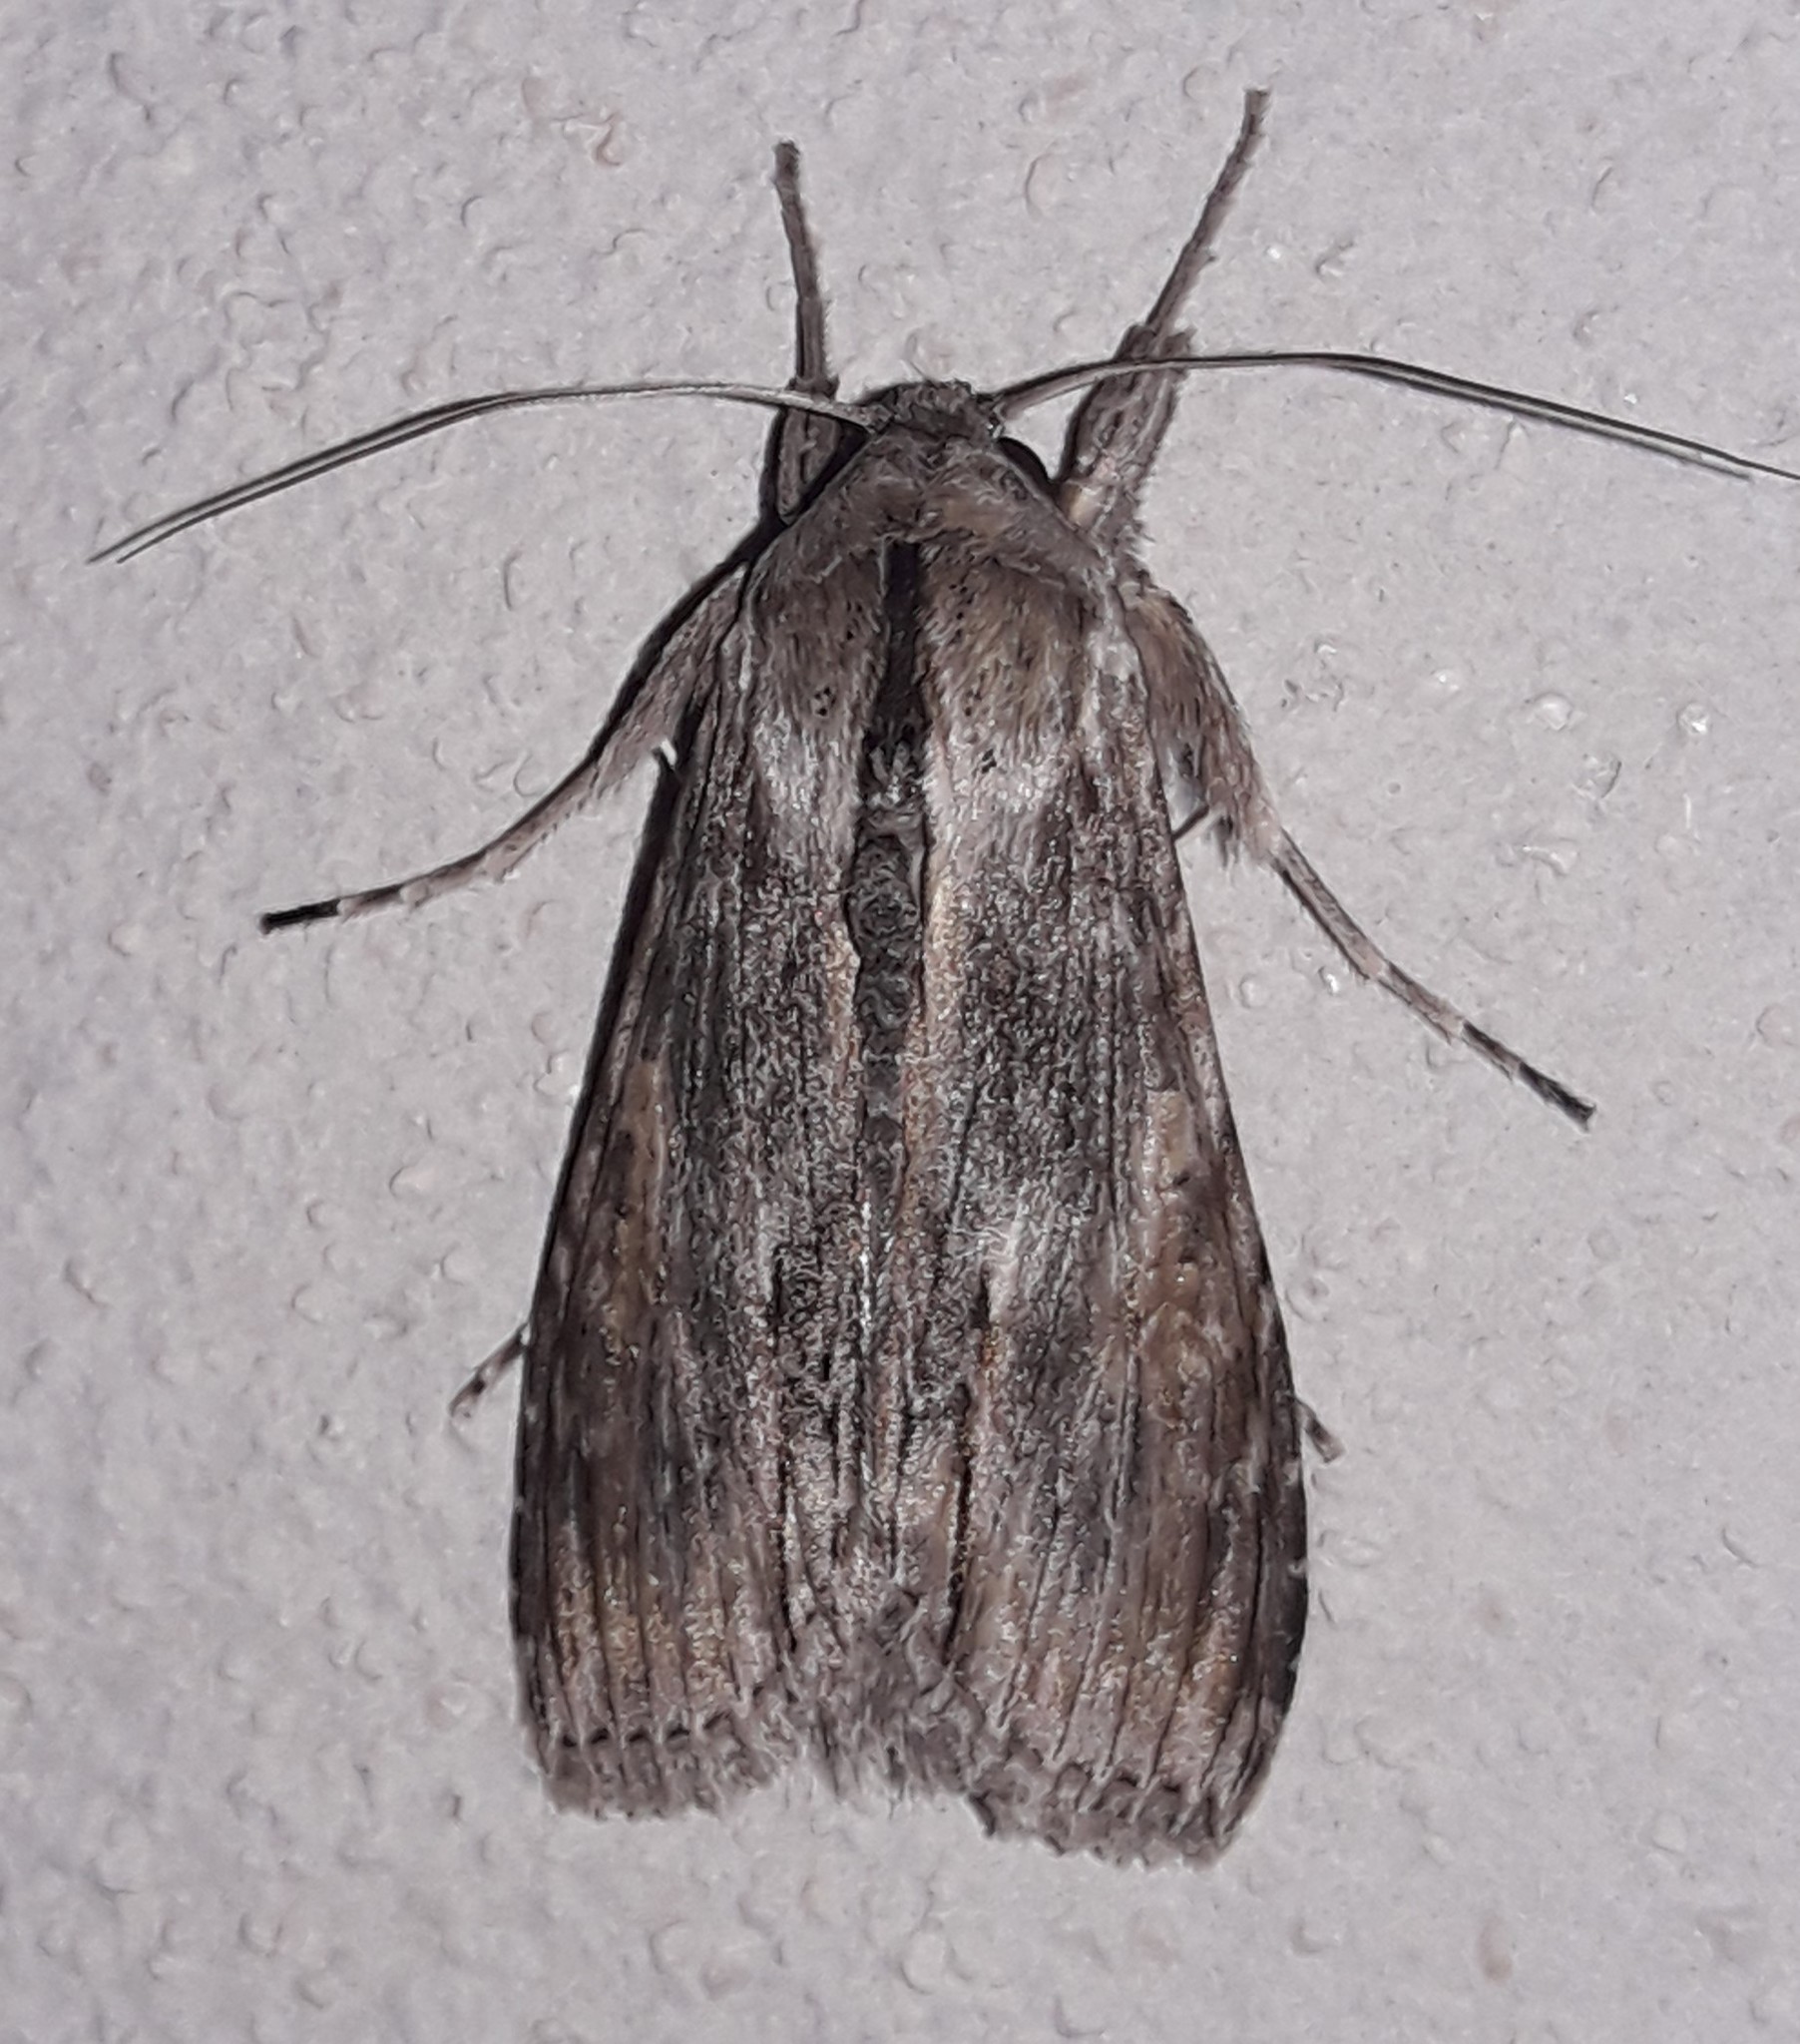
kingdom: Animalia
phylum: Arthropoda
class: Insecta
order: Lepidoptera
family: Noctuidae
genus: Cucullia
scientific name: Cucullia costaricensis
